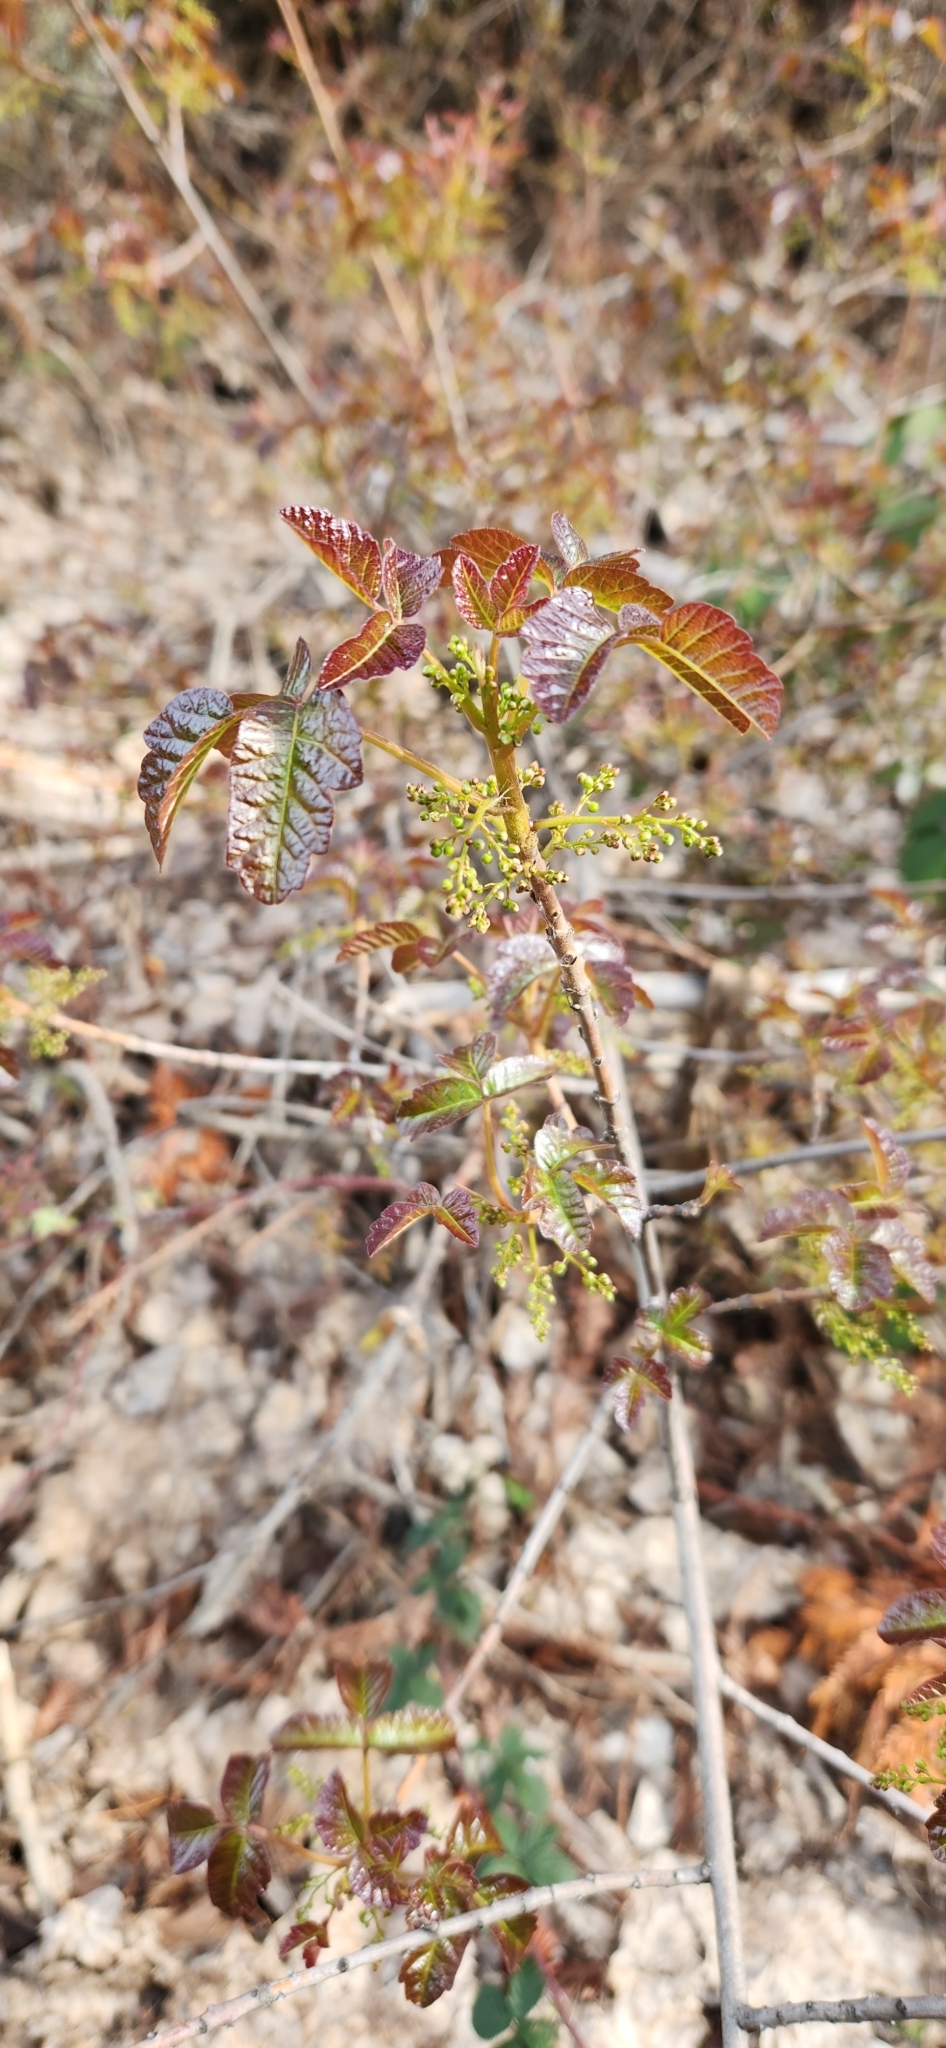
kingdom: Plantae
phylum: Tracheophyta
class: Magnoliopsida
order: Sapindales
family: Anacardiaceae
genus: Toxicodendron
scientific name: Toxicodendron diversilobum
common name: Pacific poison-oak
